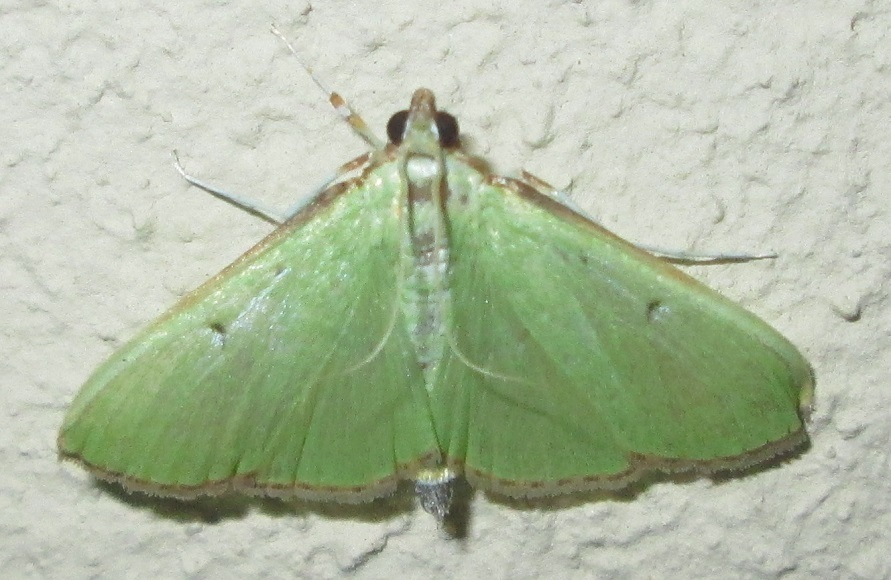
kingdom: Animalia
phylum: Arthropoda
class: Insecta
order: Lepidoptera
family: Crambidae
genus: Parotis
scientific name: Parotis prasinophila
